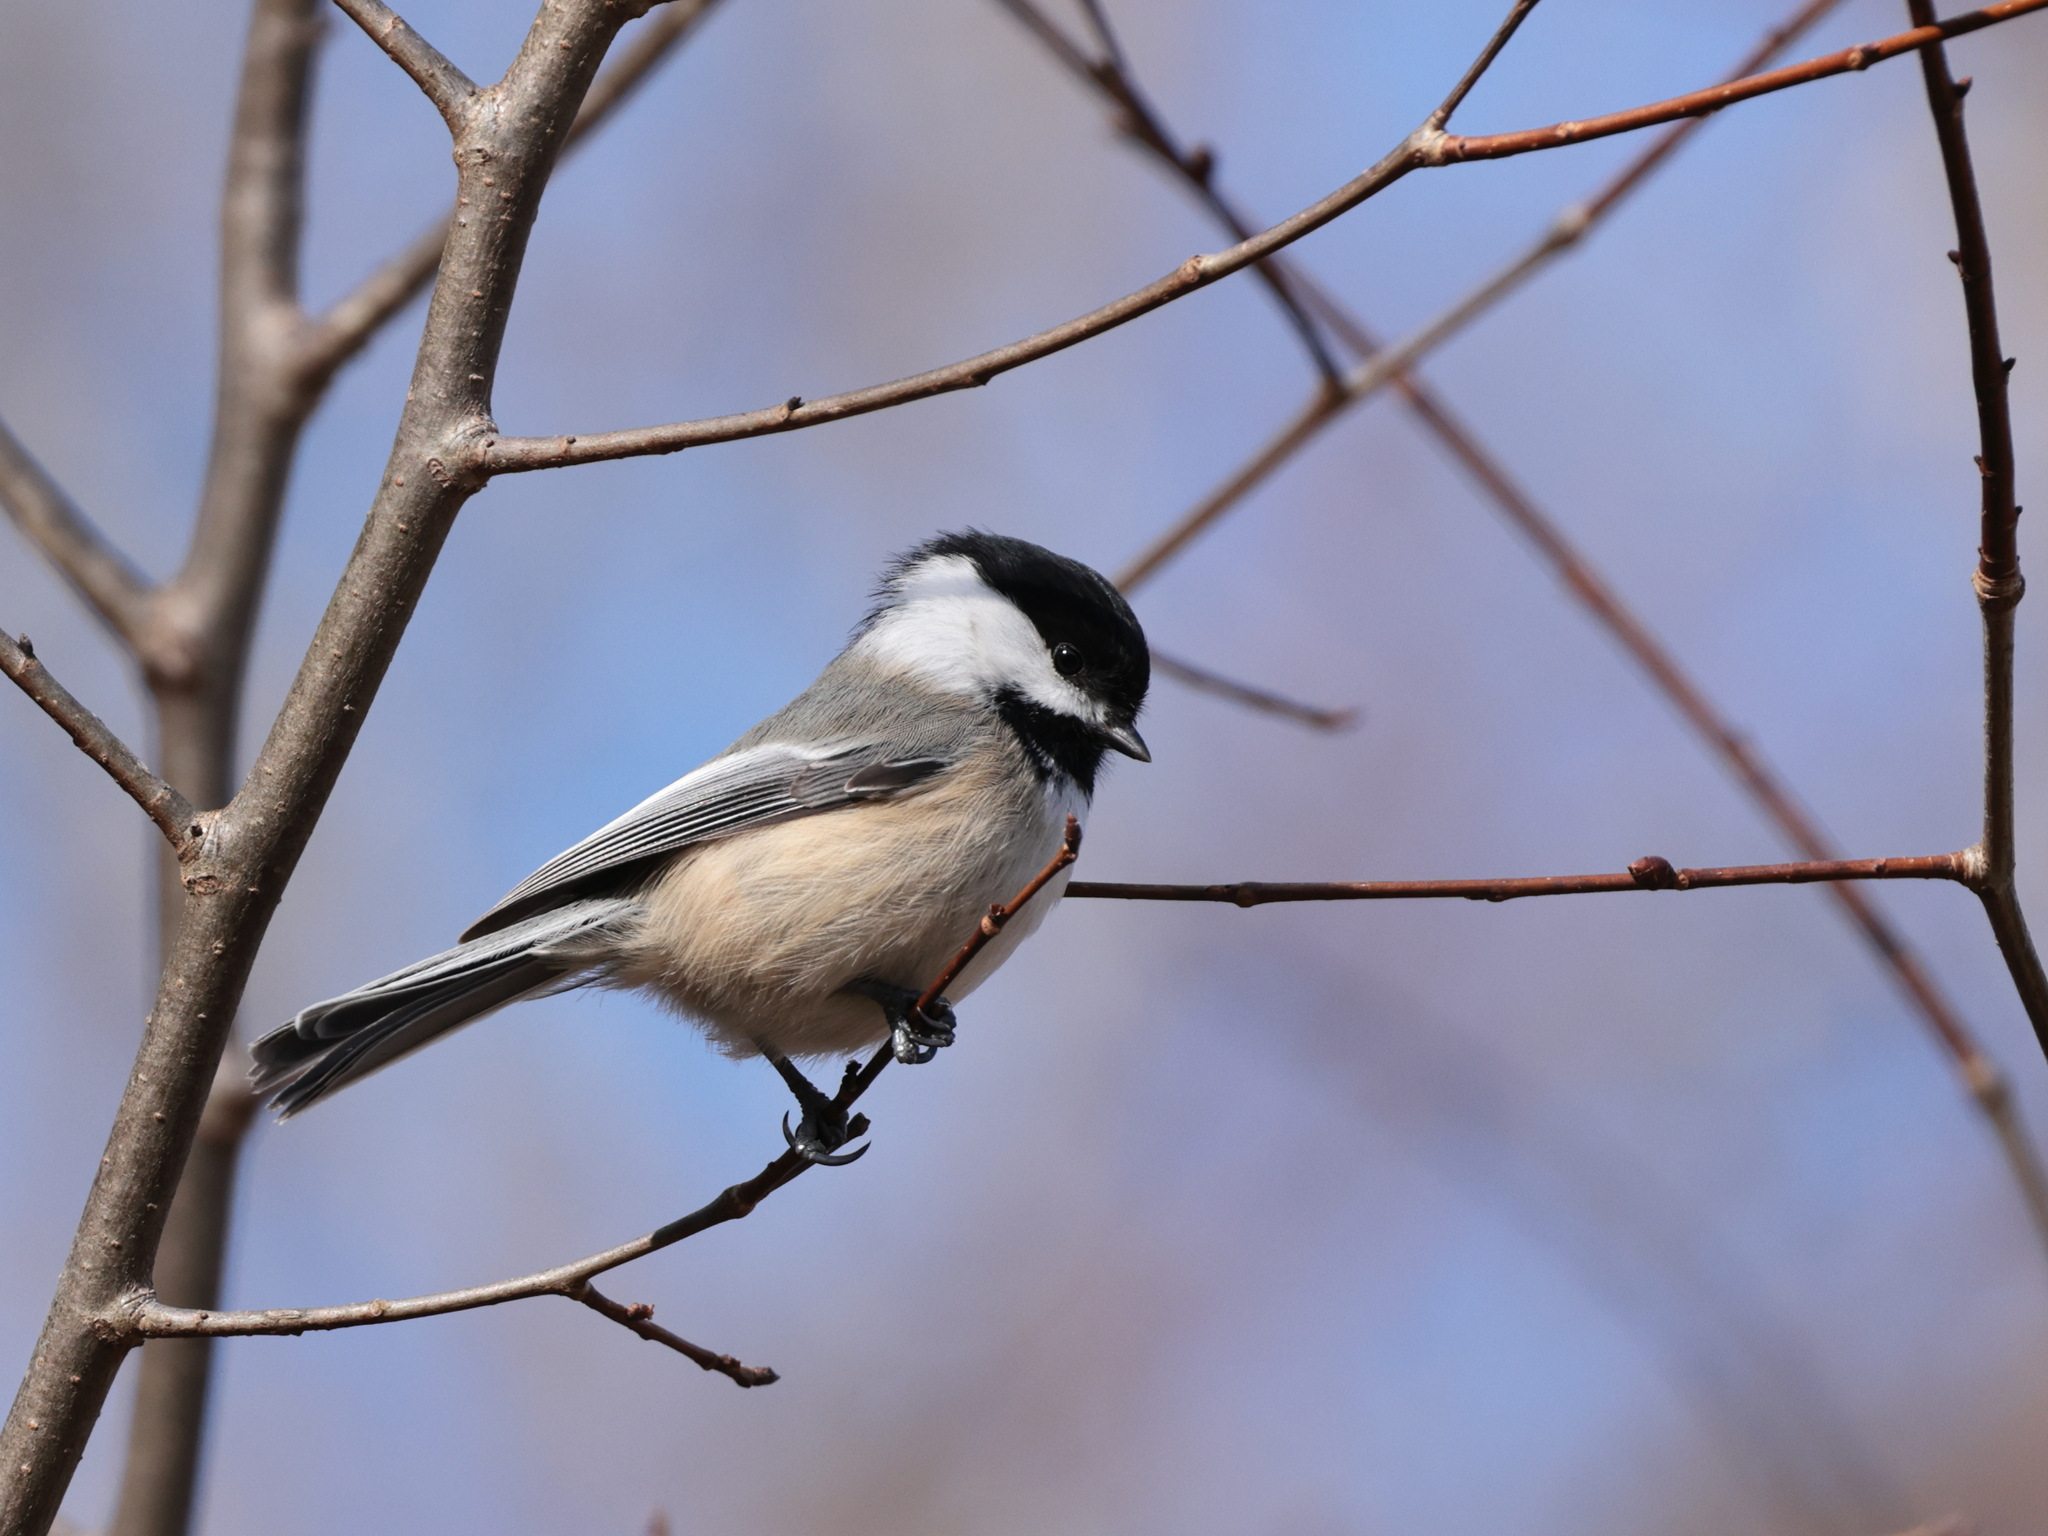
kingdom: Animalia
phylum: Chordata
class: Aves
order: Passeriformes
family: Paridae
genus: Poecile
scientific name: Poecile atricapillus
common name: Black-capped chickadee
